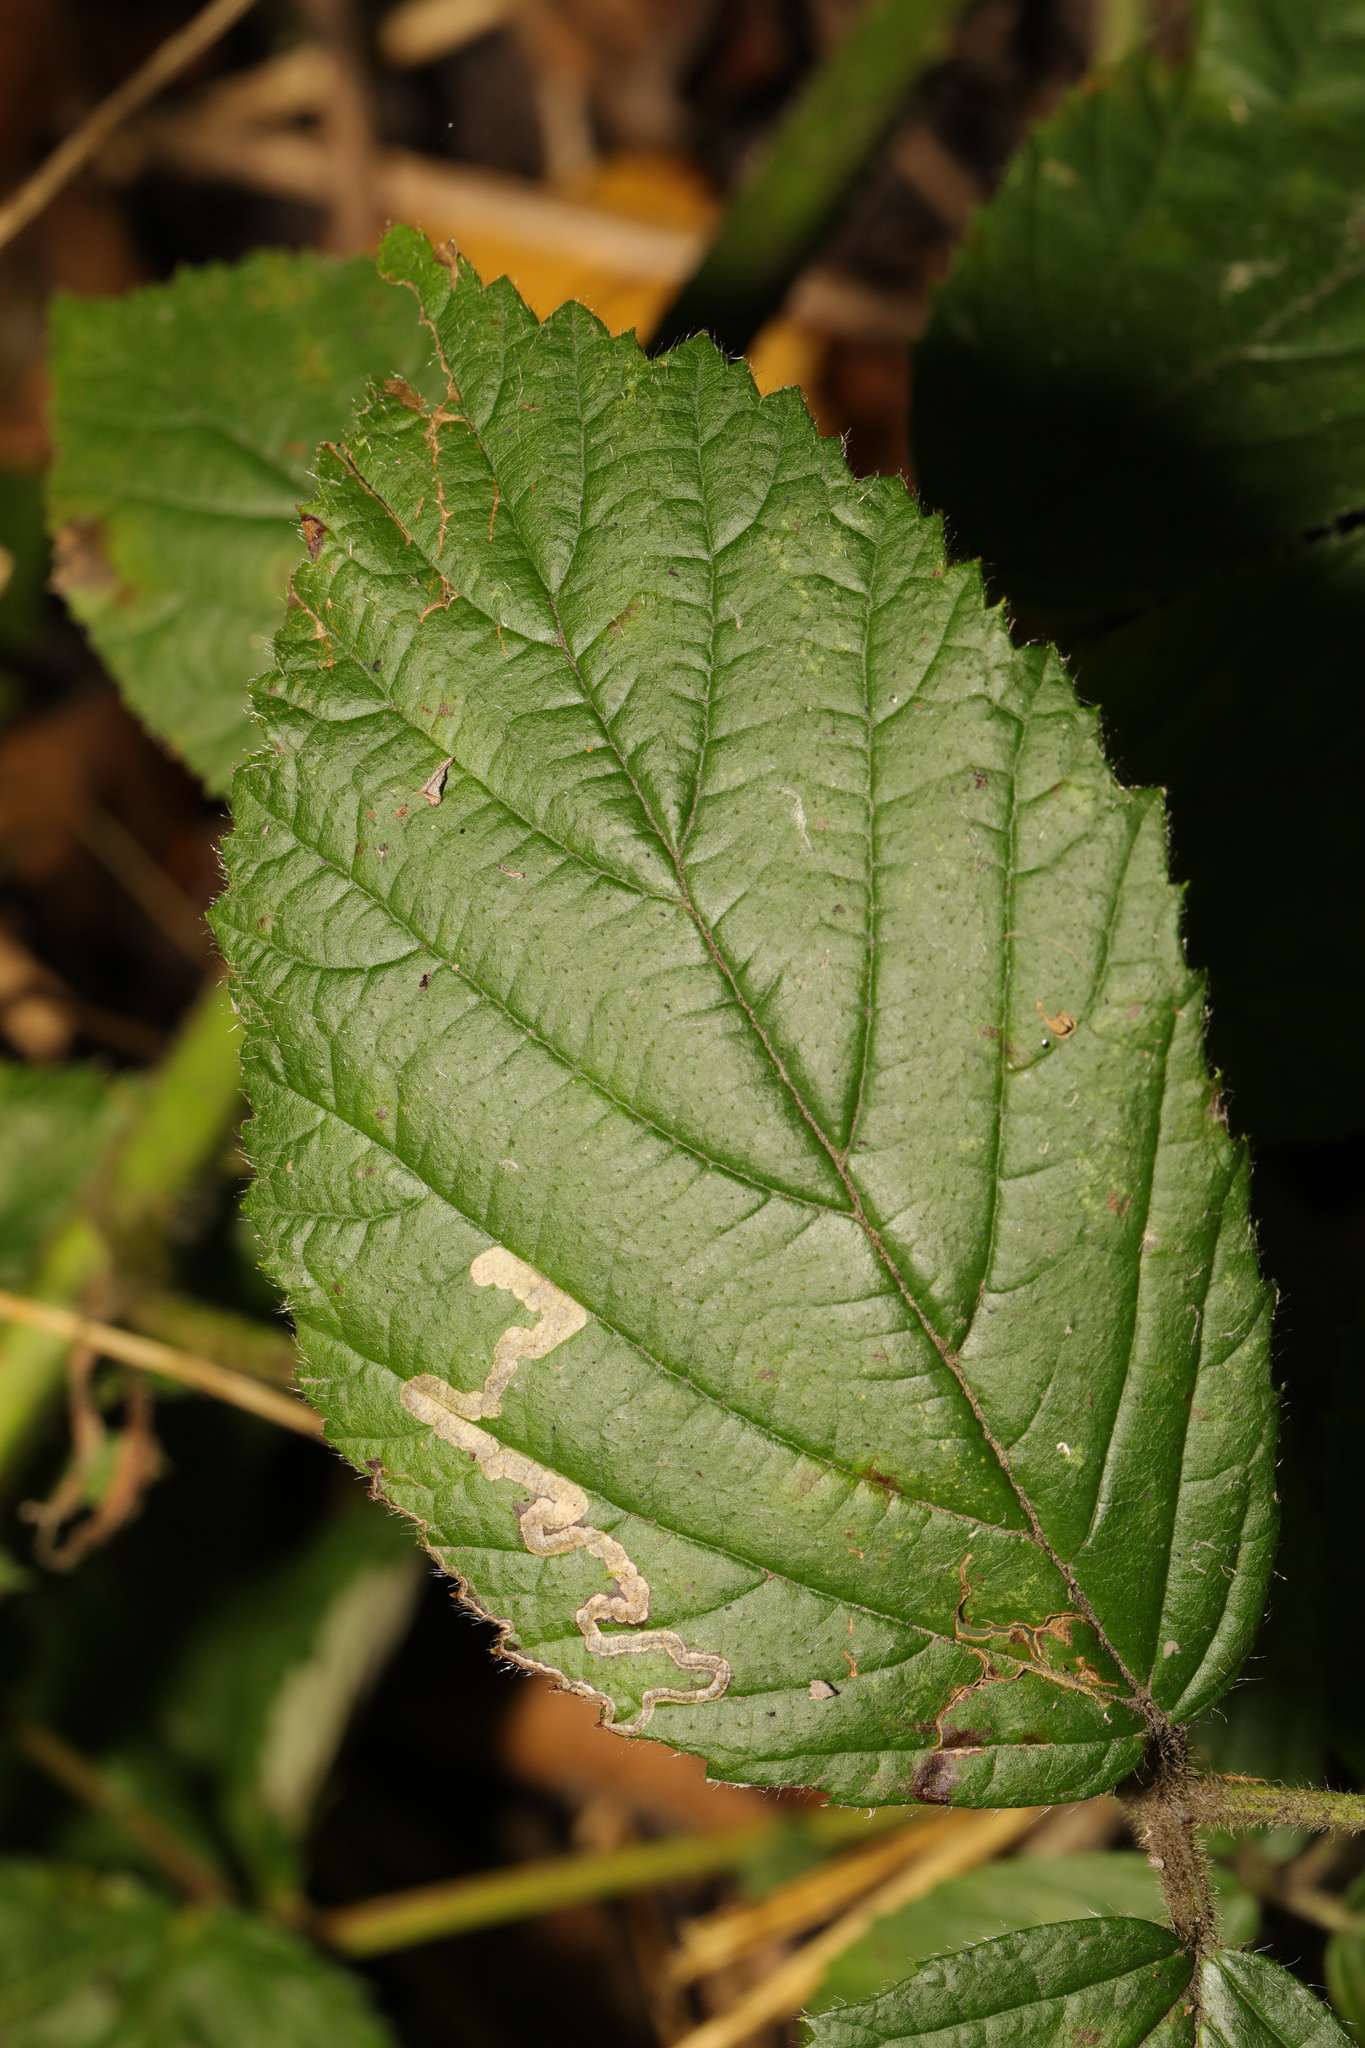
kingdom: Animalia
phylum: Arthropoda
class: Insecta
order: Lepidoptera
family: Nepticulidae
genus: Stigmella
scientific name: Stigmella aurella
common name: Golden pigmy
